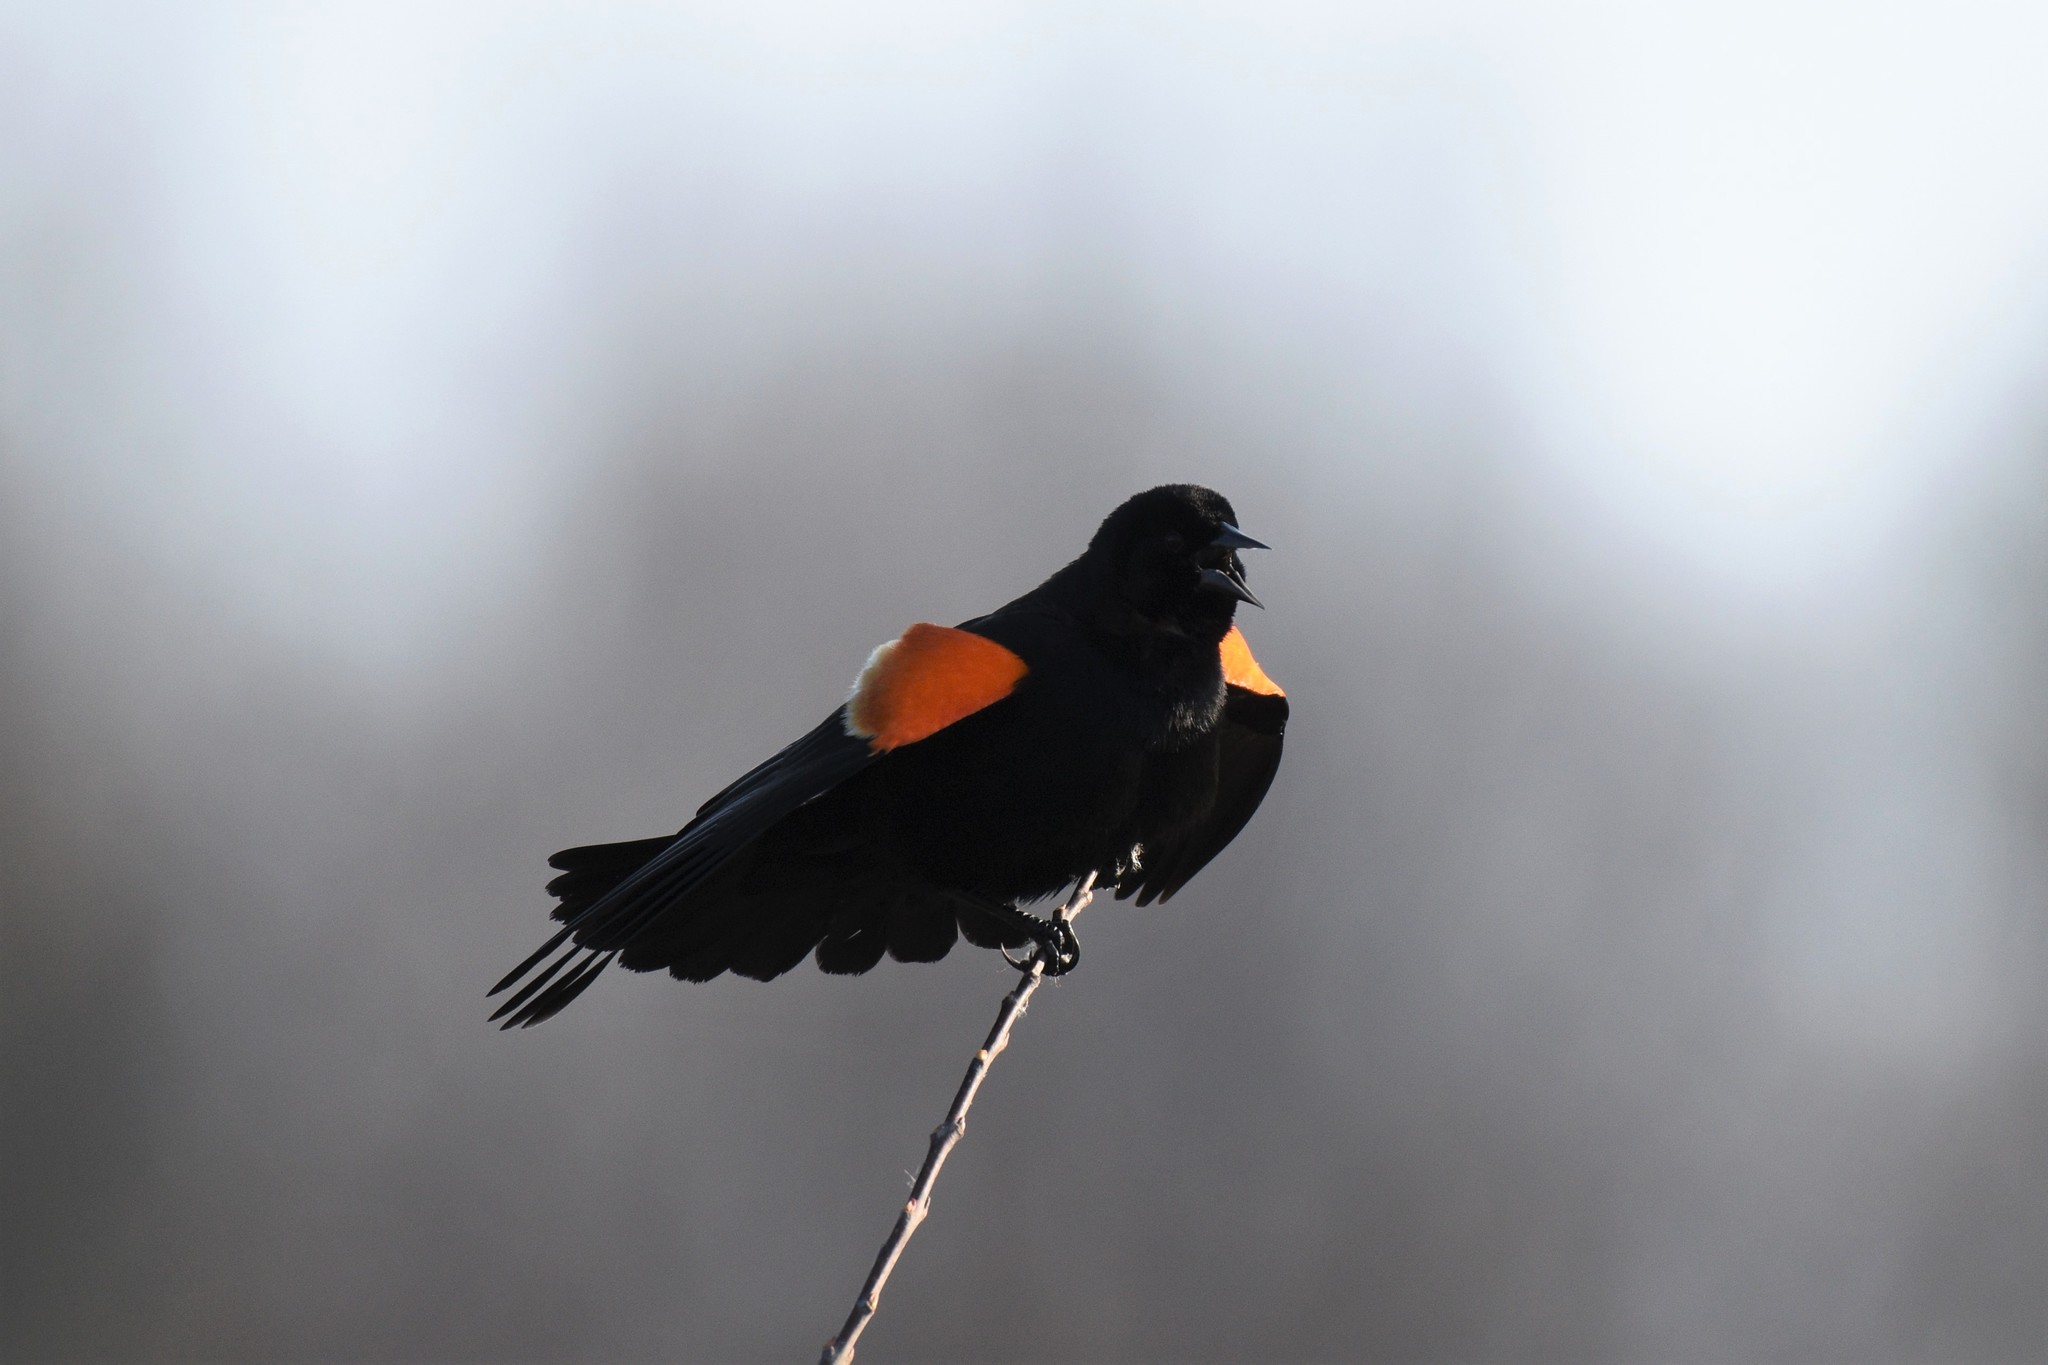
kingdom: Animalia
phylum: Chordata
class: Aves
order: Passeriformes
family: Icteridae
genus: Agelaius
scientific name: Agelaius phoeniceus
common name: Red-winged blackbird
